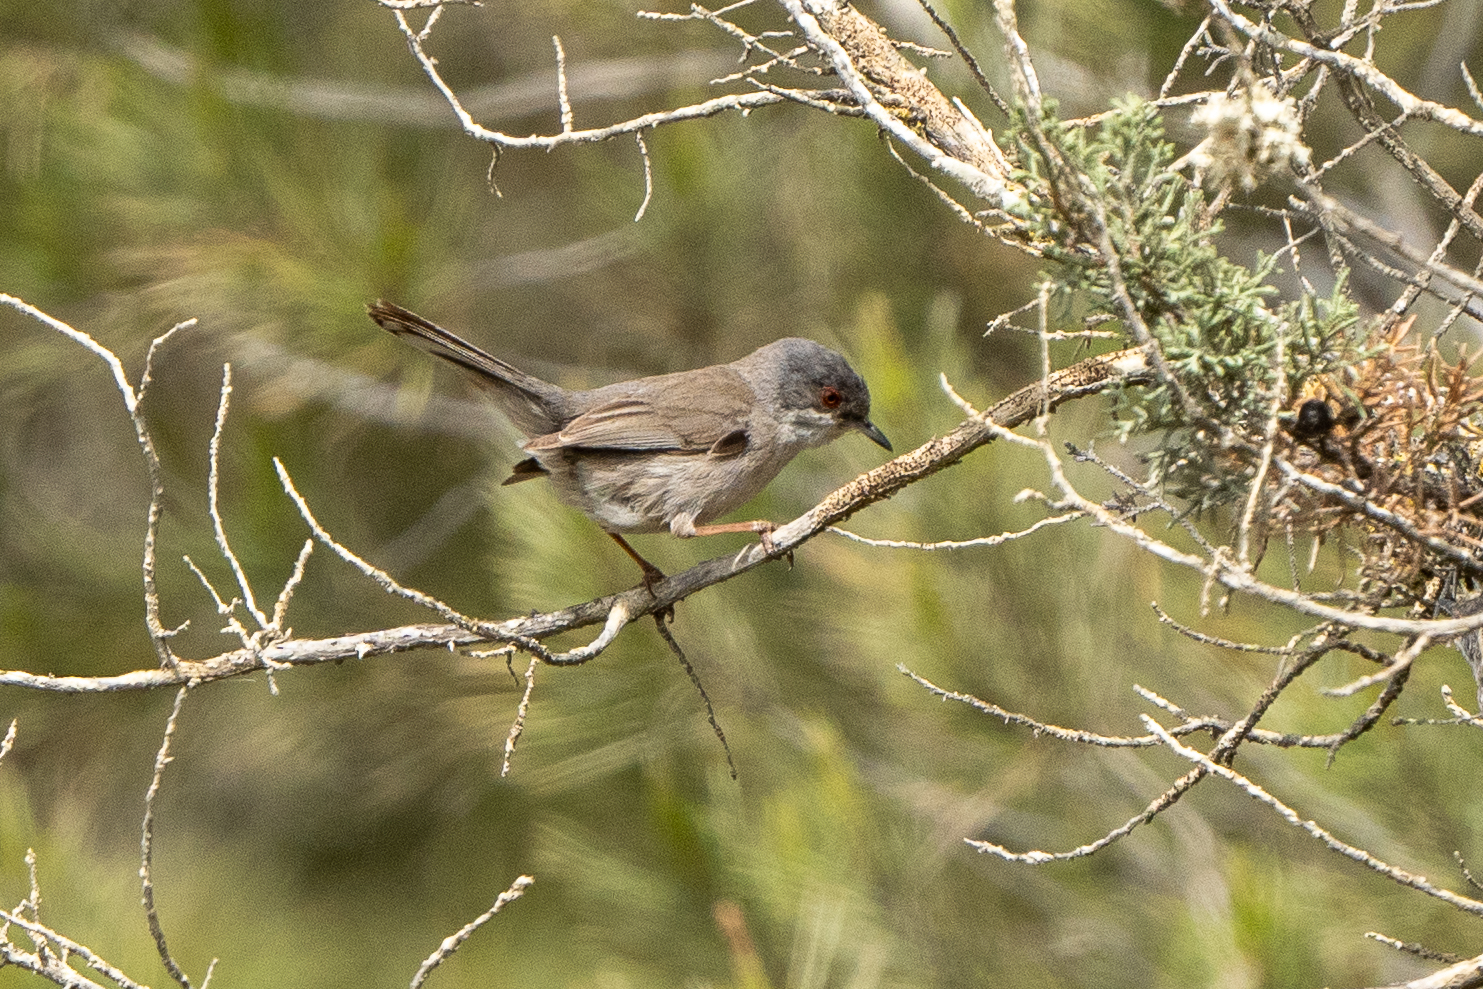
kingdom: Animalia
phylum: Chordata
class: Aves
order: Passeriformes
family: Sylviidae
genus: Curruca
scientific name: Curruca melanocephala
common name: Sardinian warbler
